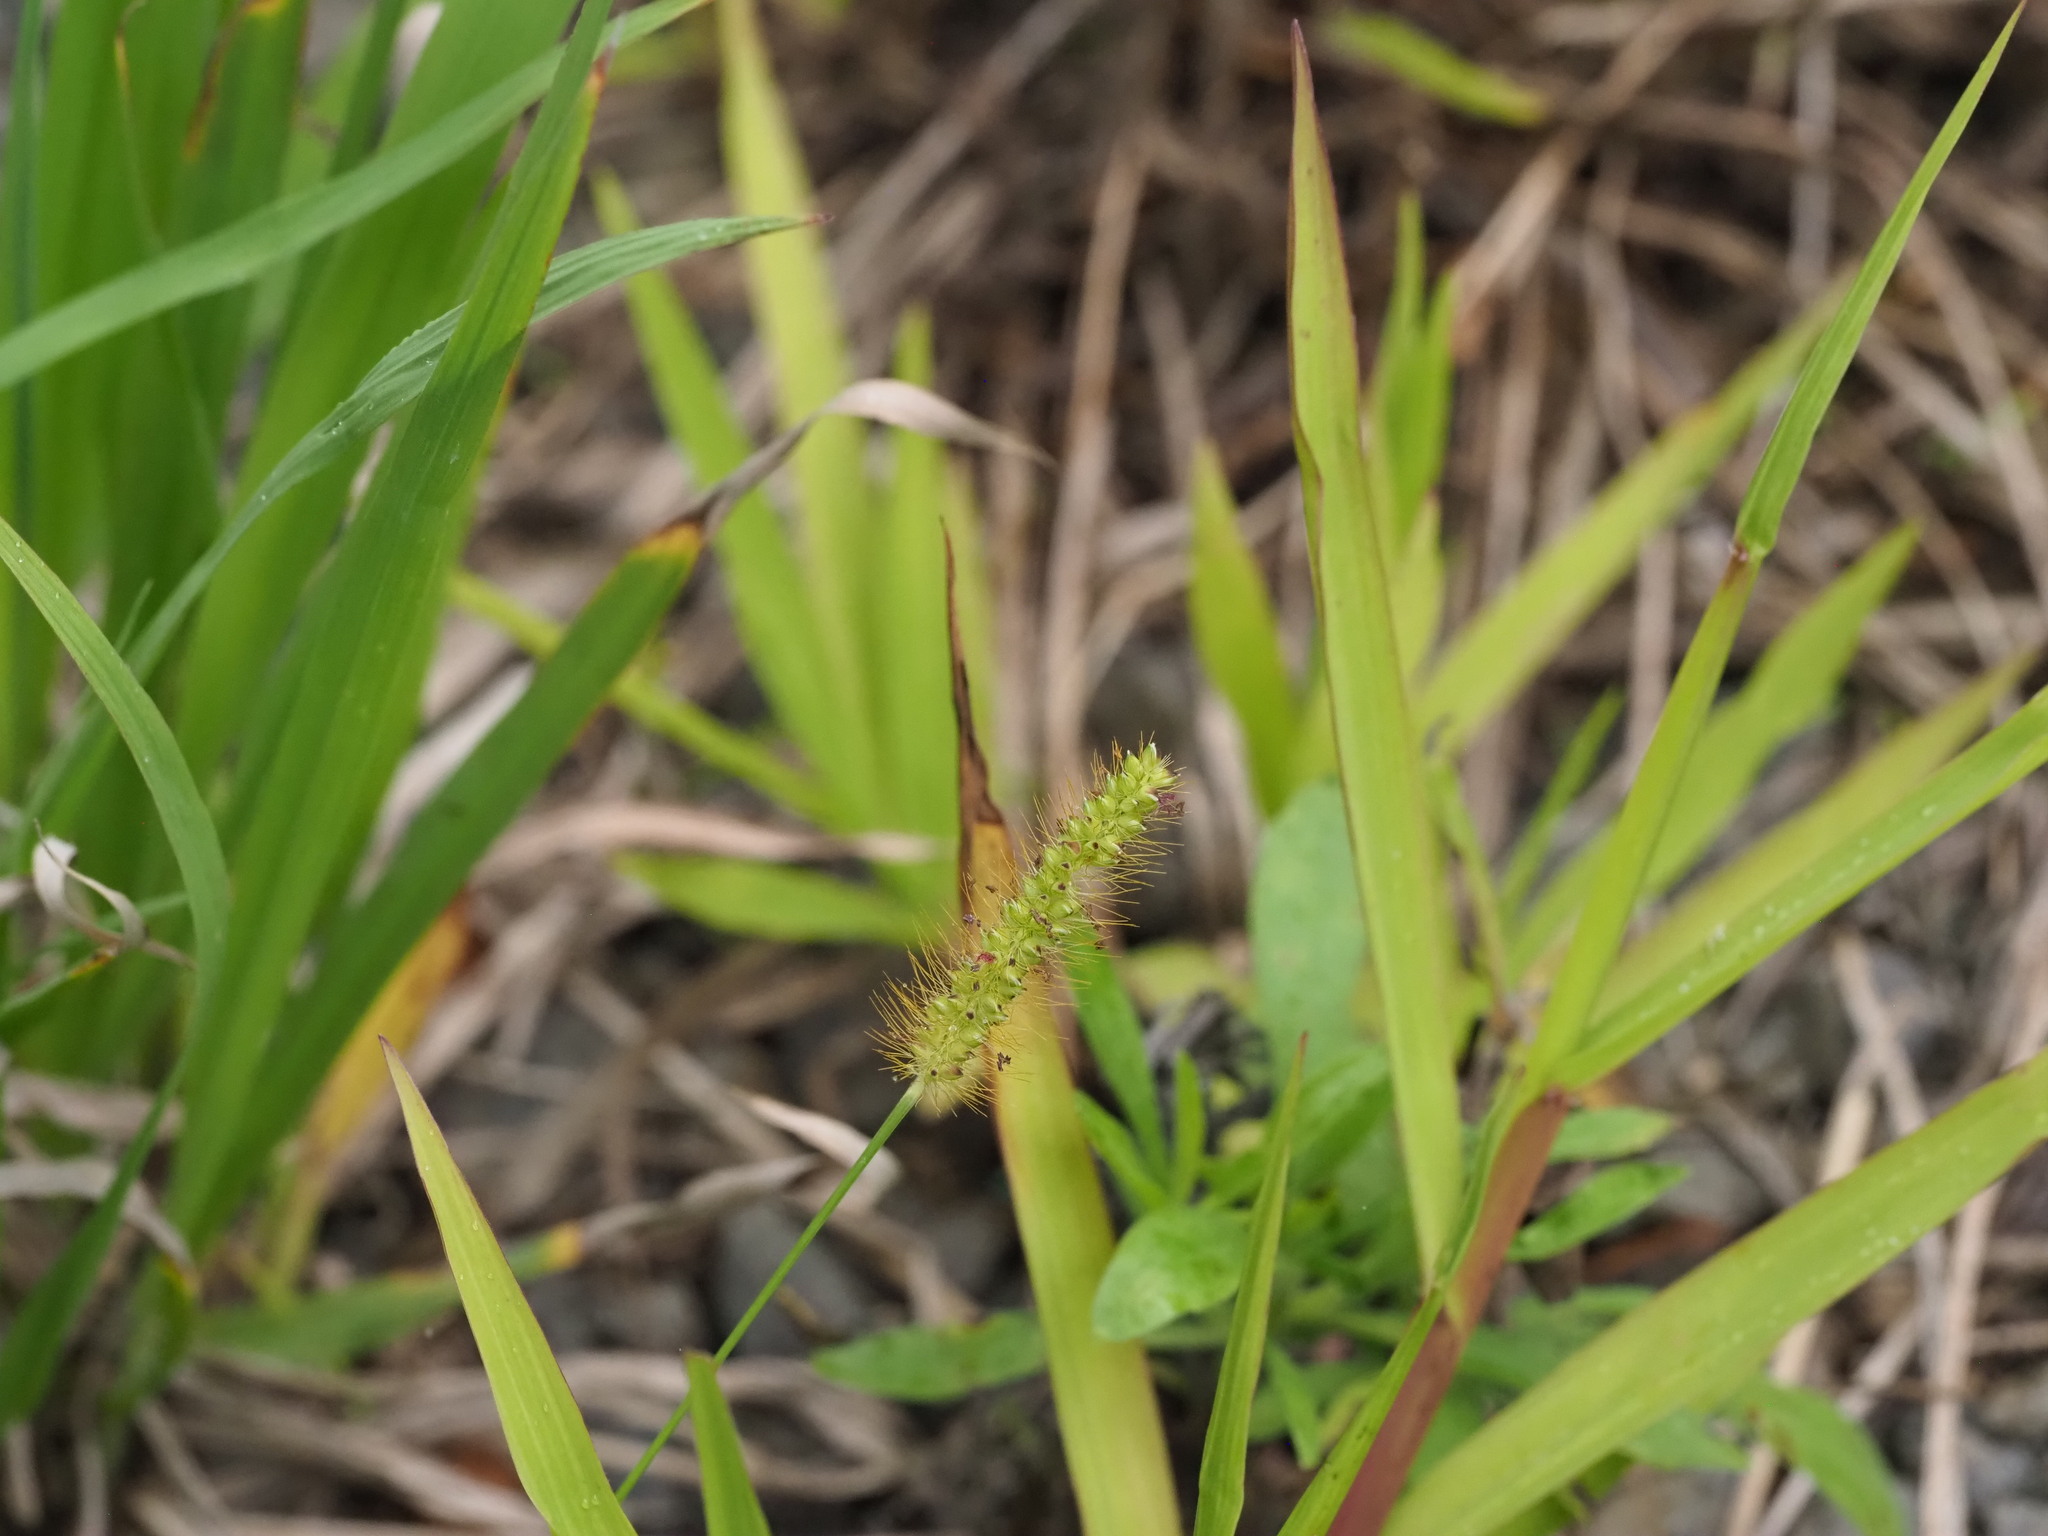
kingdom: Plantae
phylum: Tracheophyta
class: Liliopsida
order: Poales
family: Poaceae
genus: Setaria
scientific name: Setaria parviflora
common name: Knotroot bristle-grass
